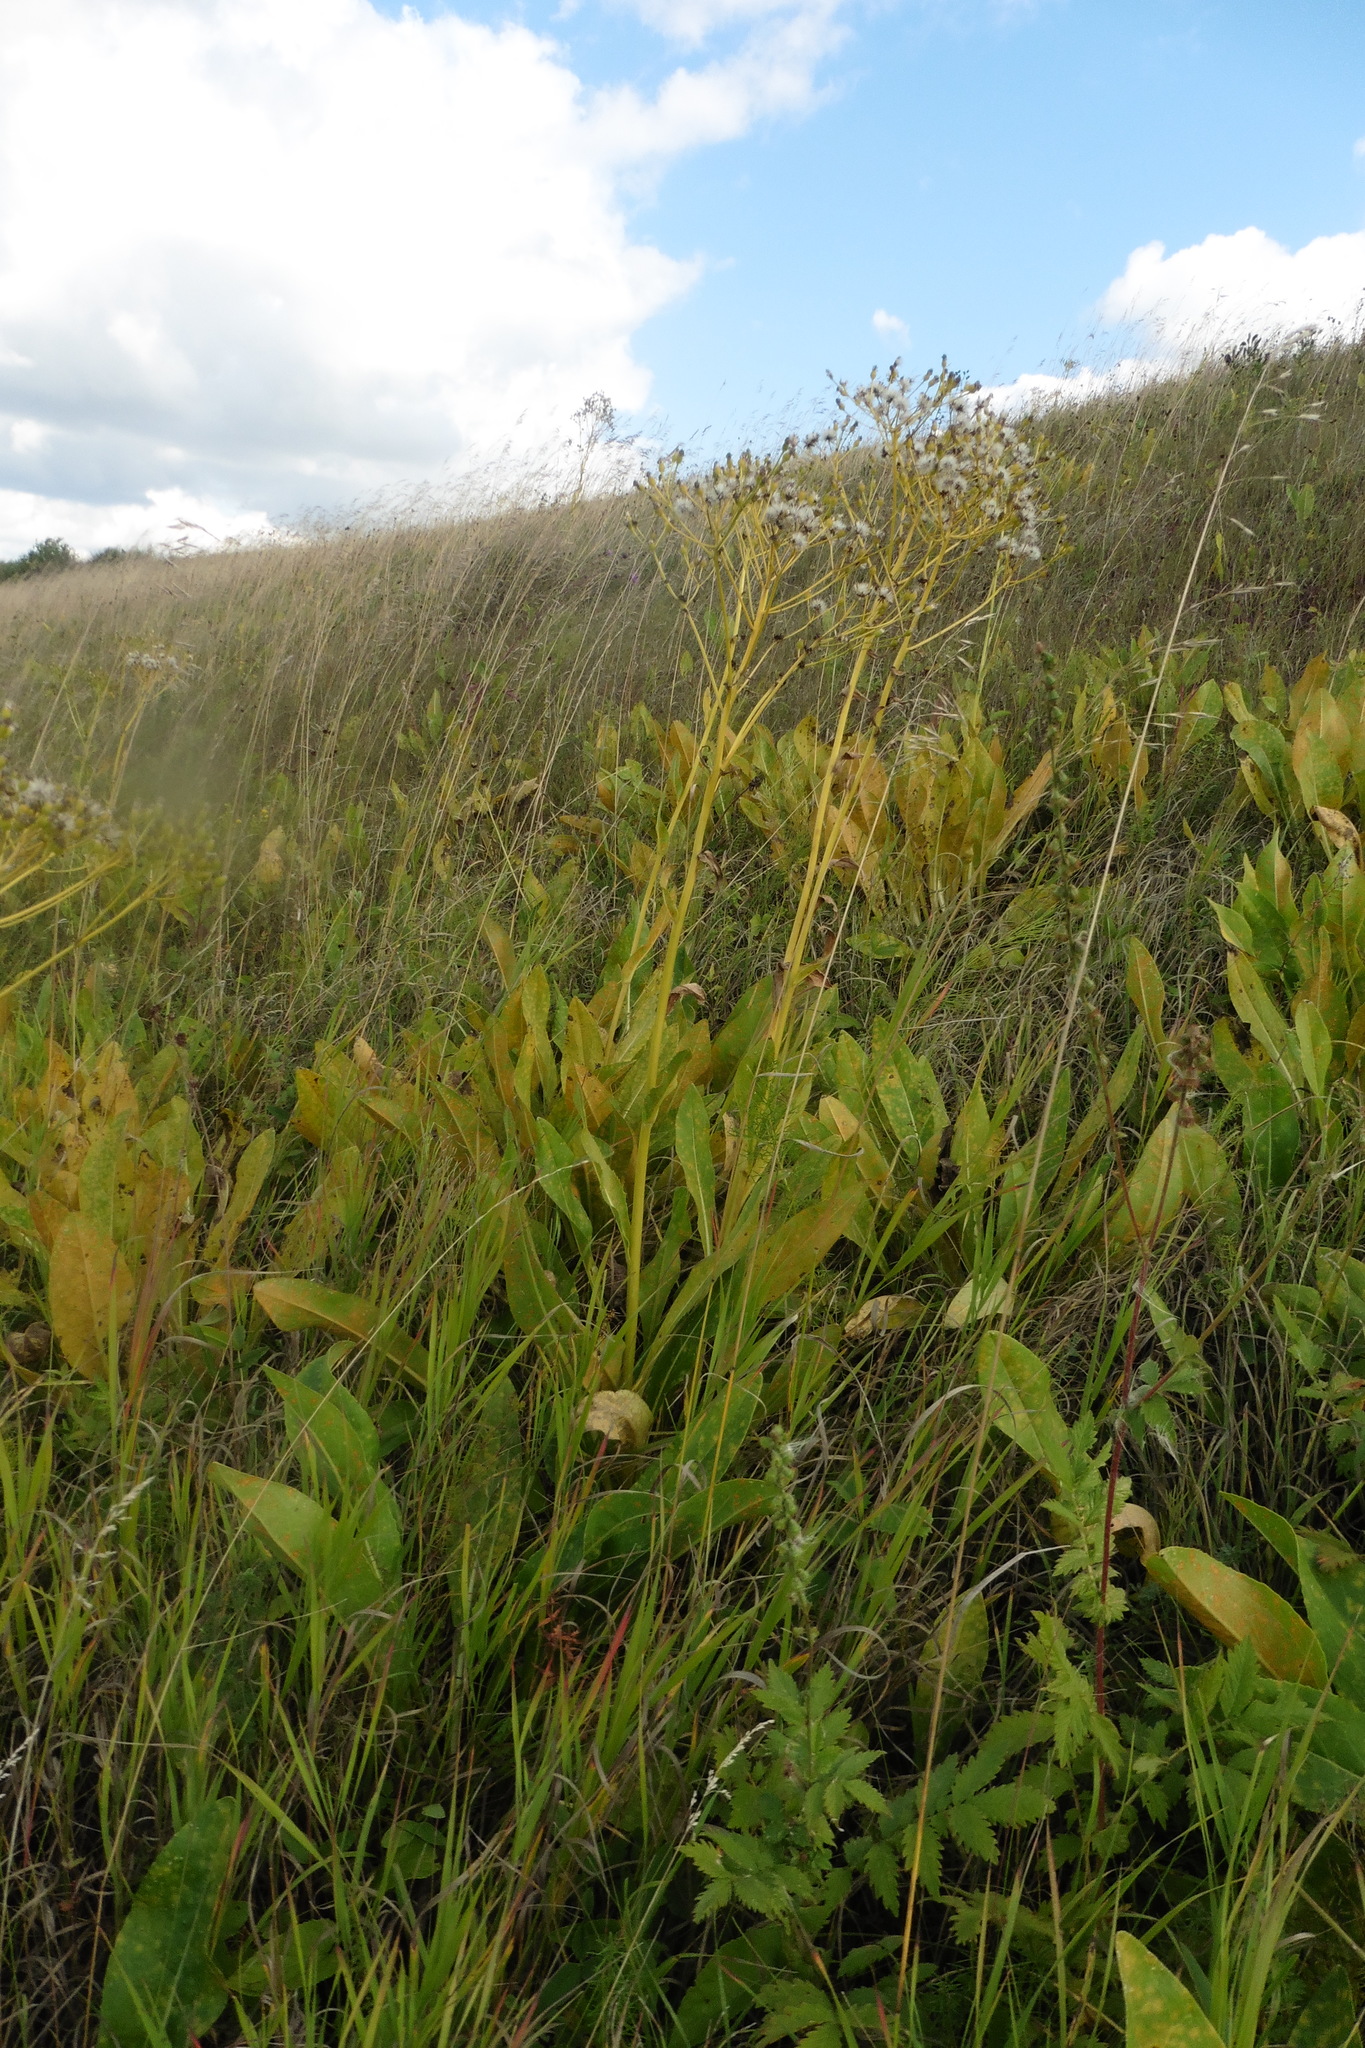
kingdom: Plantae
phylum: Tracheophyta
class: Magnoliopsida
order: Asterales
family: Asteraceae
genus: Senecio
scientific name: Senecio doria
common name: Golden ragwort
